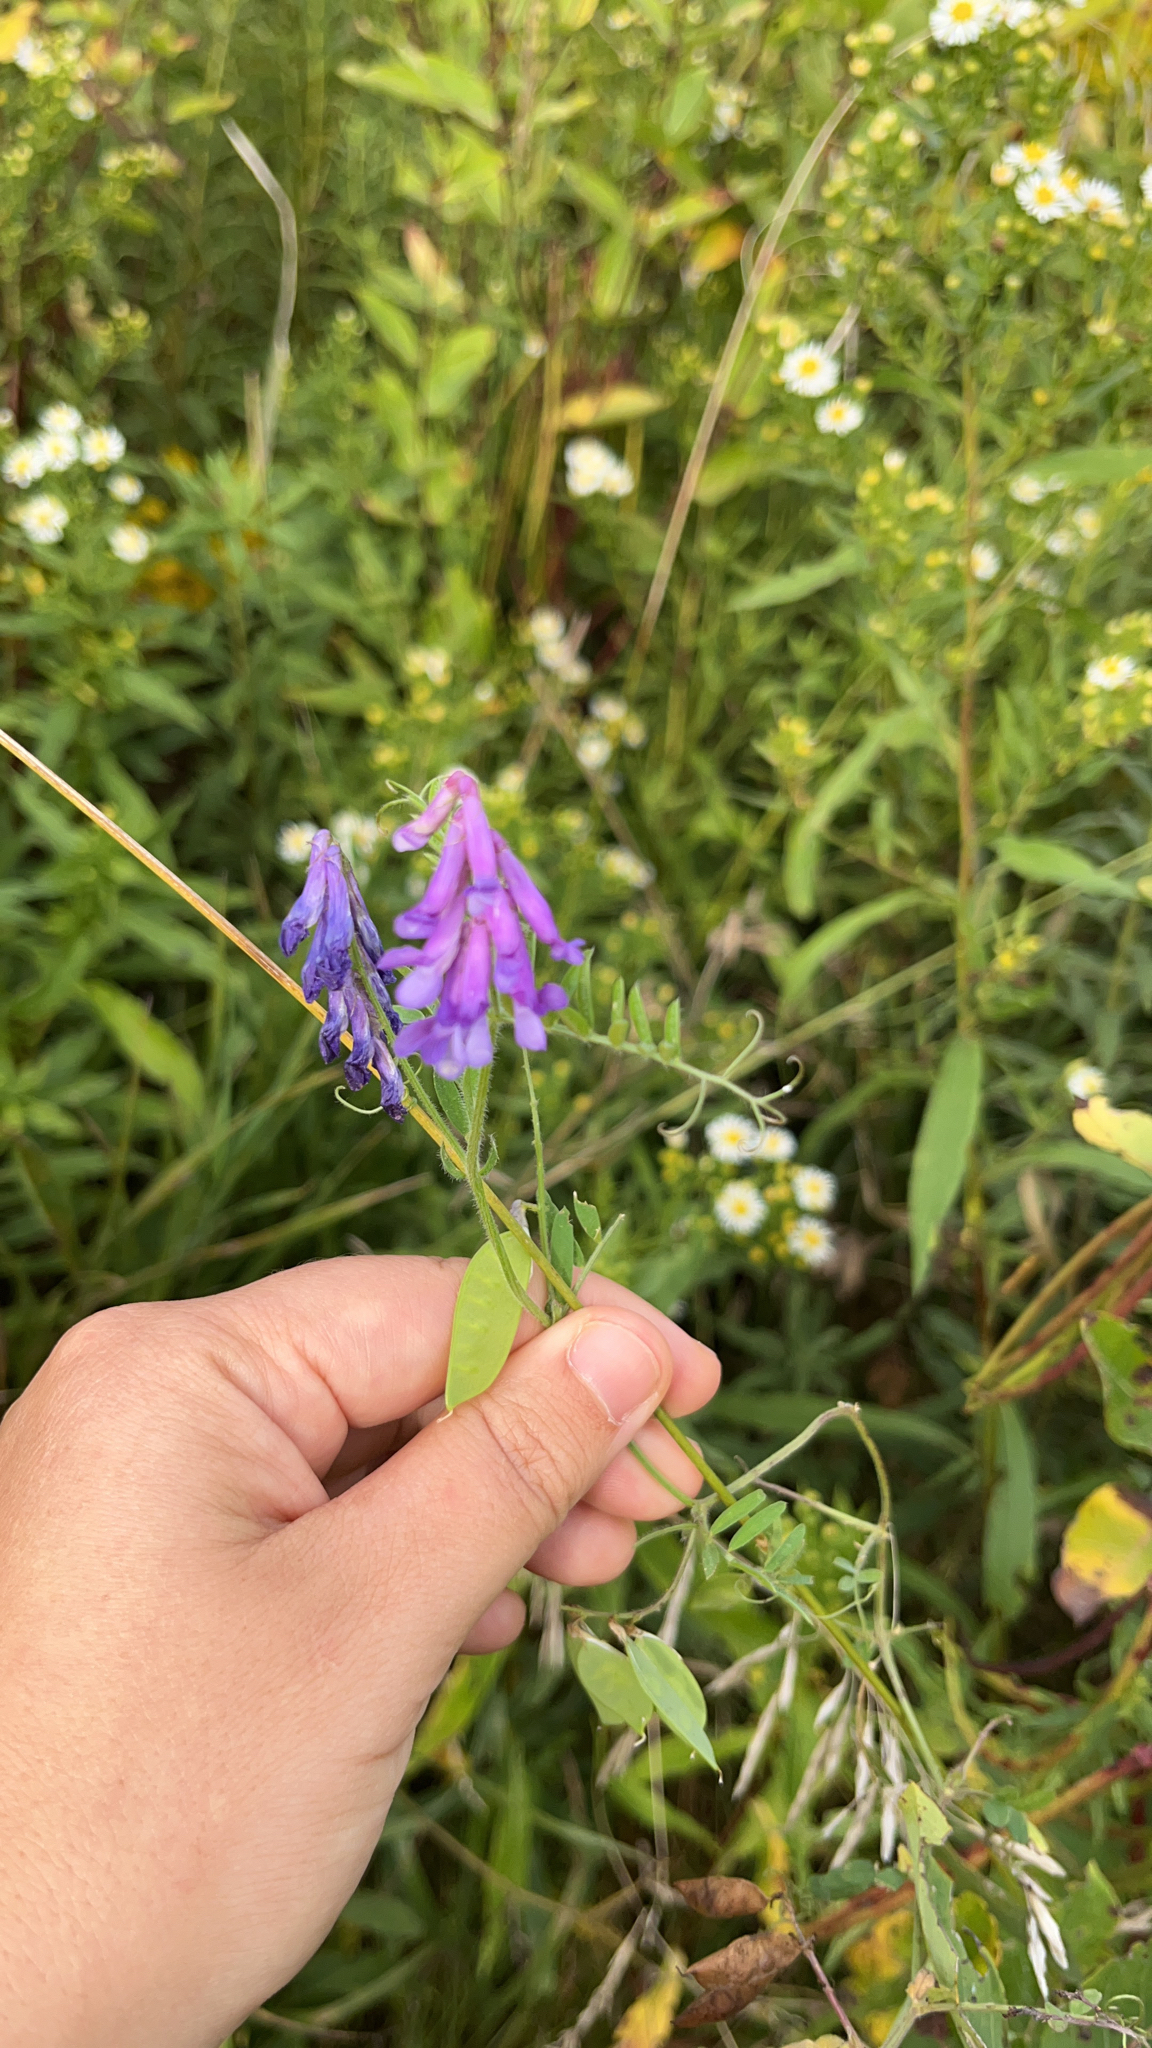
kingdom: Plantae
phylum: Tracheophyta
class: Magnoliopsida
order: Fabales
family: Fabaceae
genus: Vicia
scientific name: Vicia villosa
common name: Fodder vetch
